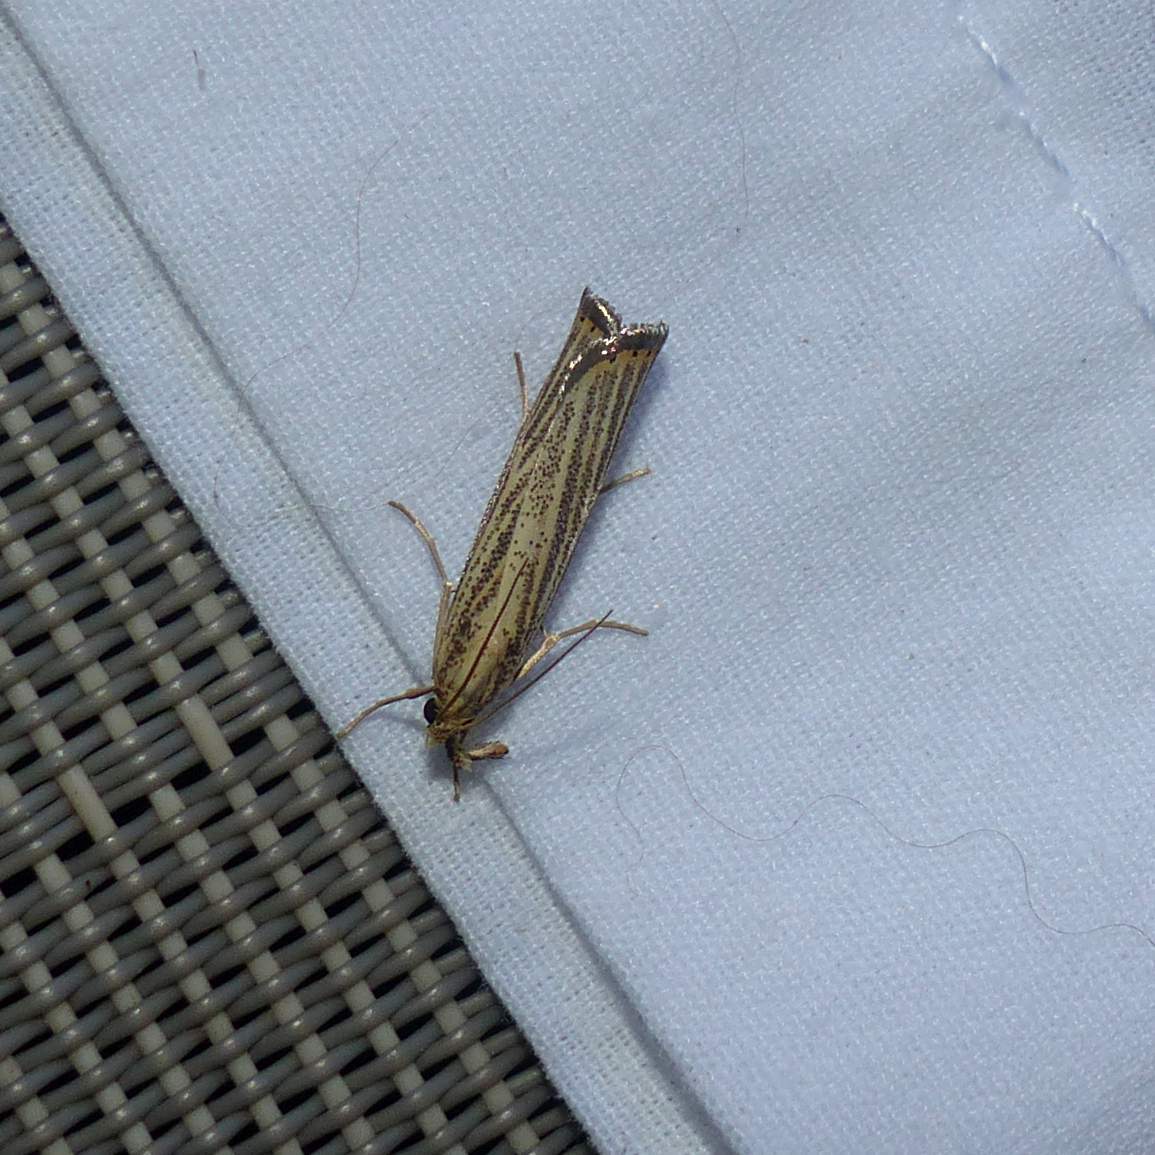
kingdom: Animalia
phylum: Arthropoda
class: Insecta
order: Lepidoptera
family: Crambidae
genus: Agriphila
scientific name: Agriphila vulgivagellus
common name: Vagabond crambus moth
